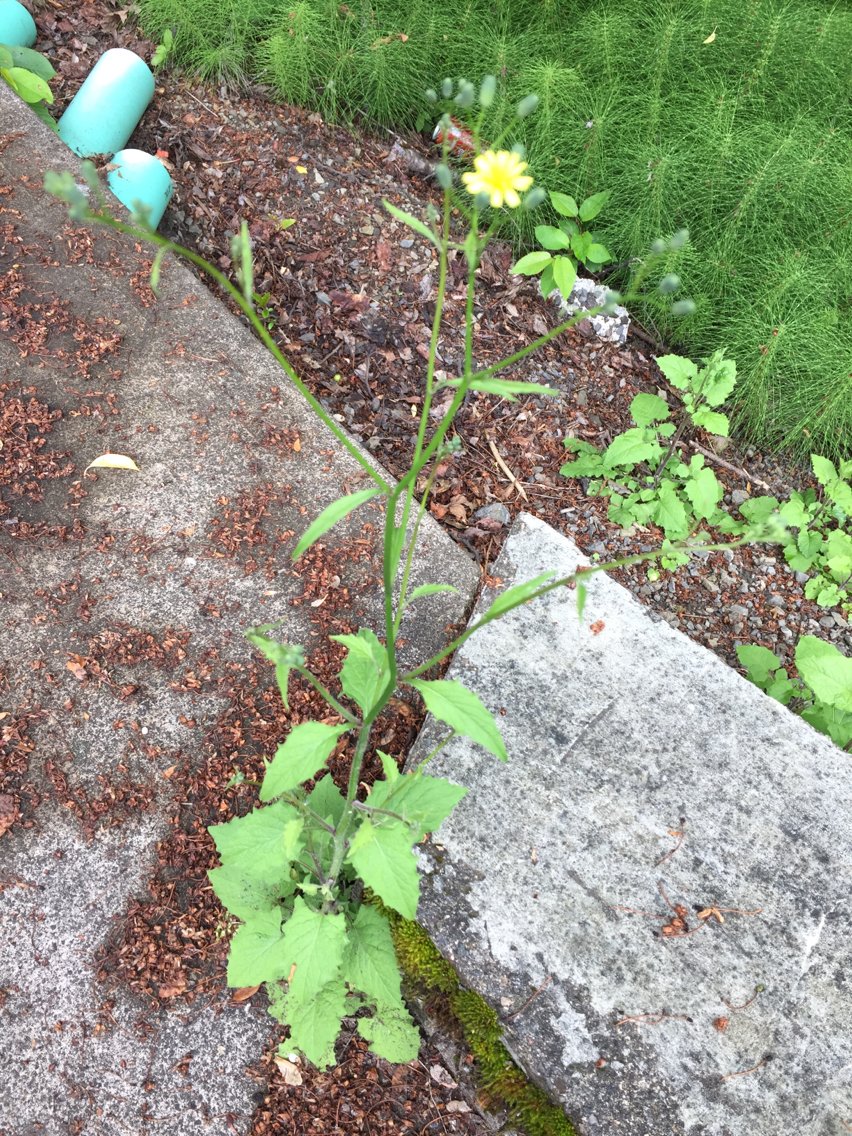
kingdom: Plantae
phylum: Tracheophyta
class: Magnoliopsida
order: Asterales
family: Asteraceae
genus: Lapsana
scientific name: Lapsana communis
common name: Nipplewort
